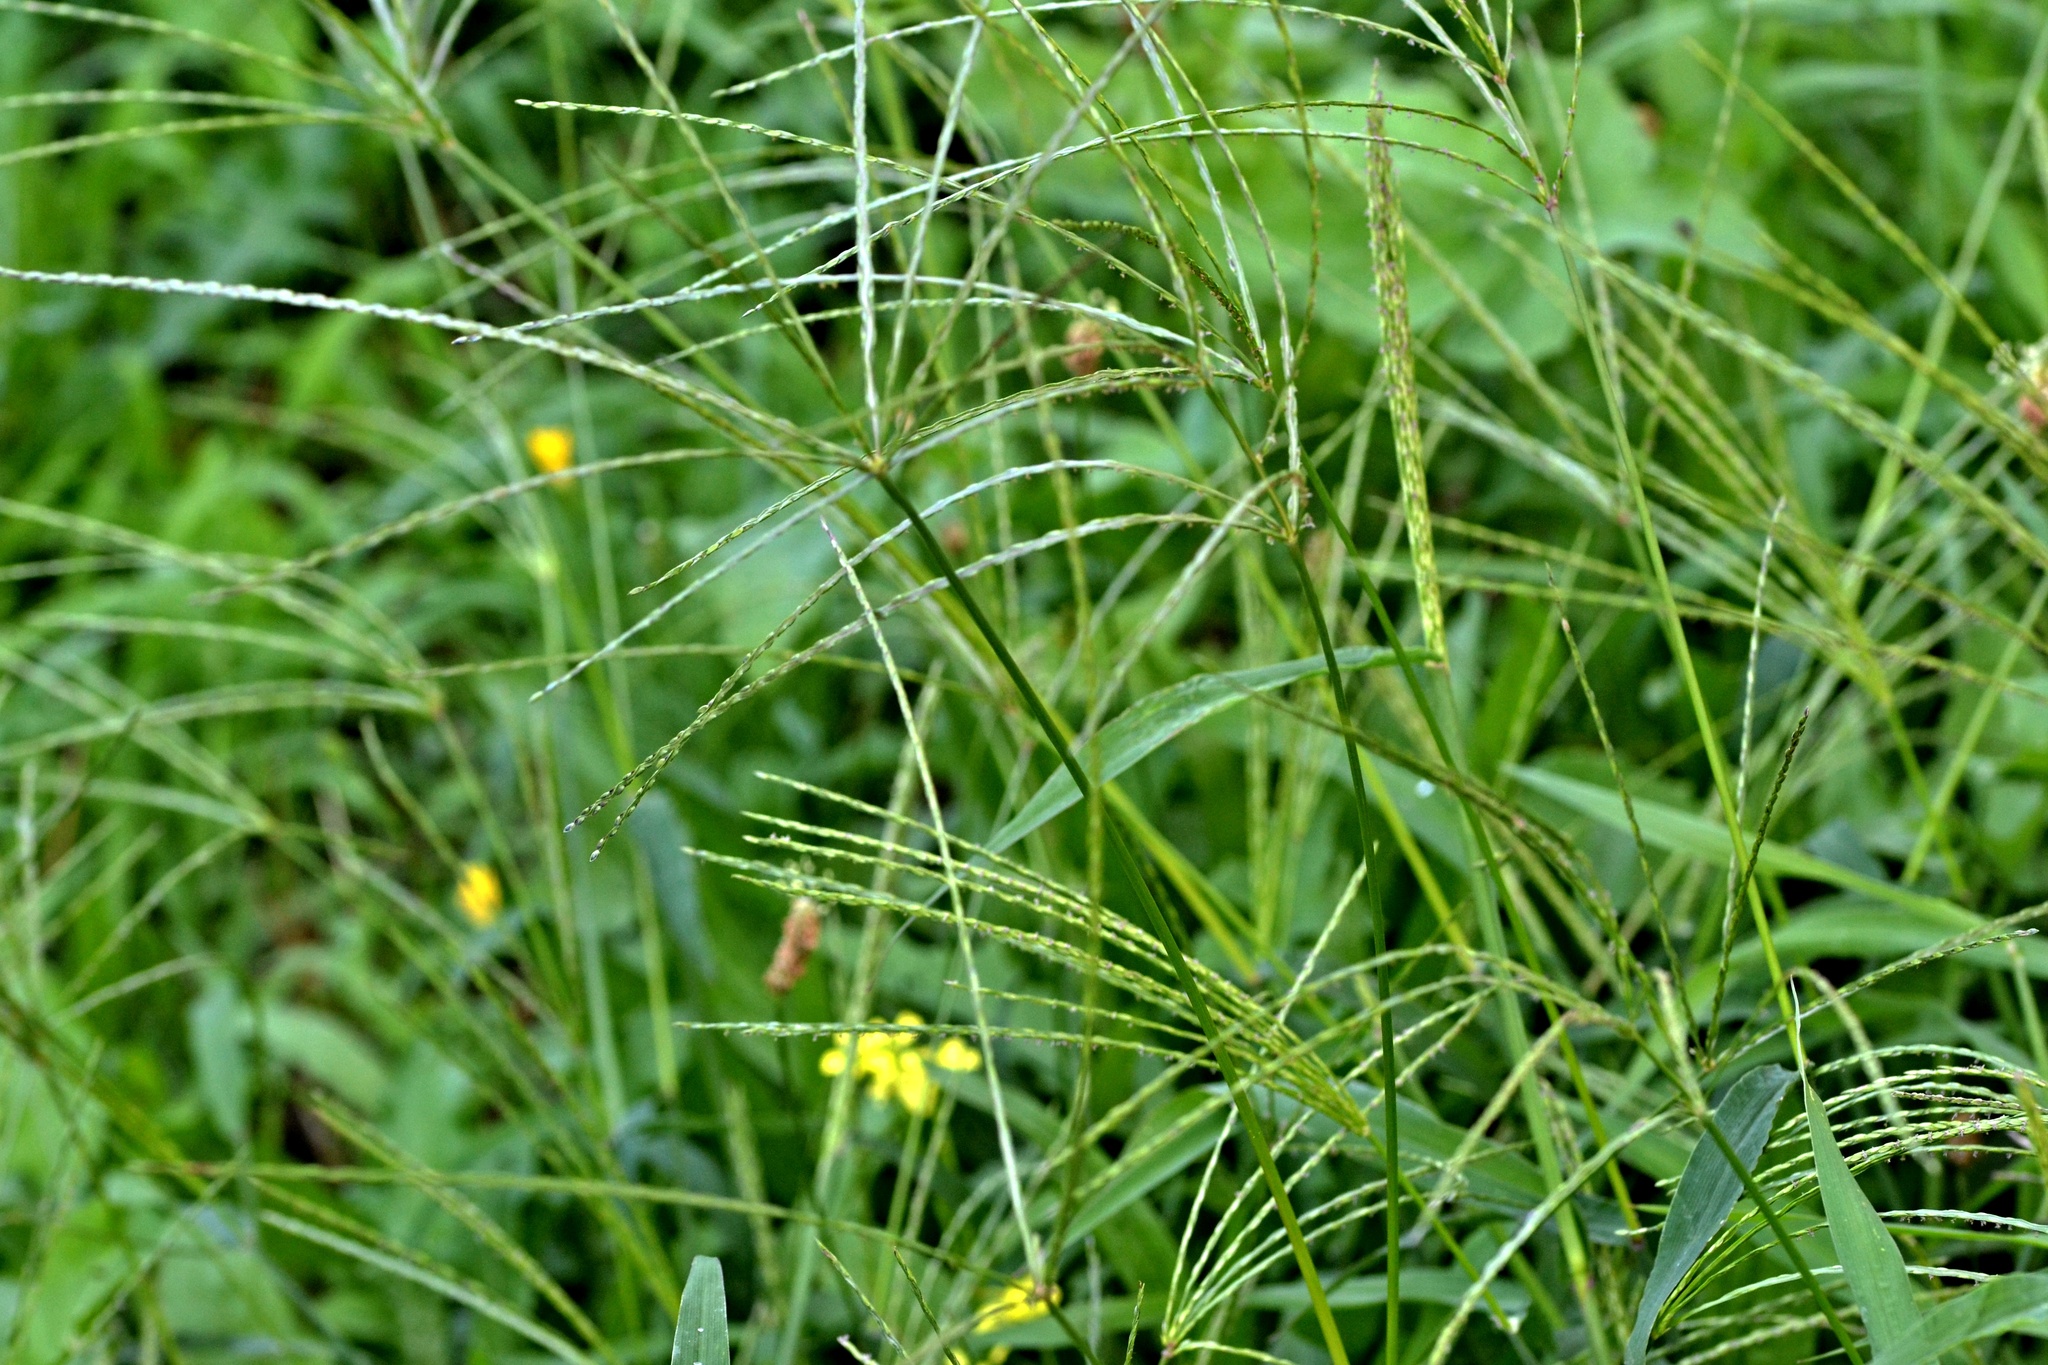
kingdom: Plantae
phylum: Tracheophyta
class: Liliopsida
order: Poales
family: Poaceae
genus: Digitaria
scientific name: Digitaria sanguinalis
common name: Hairy crabgrass
